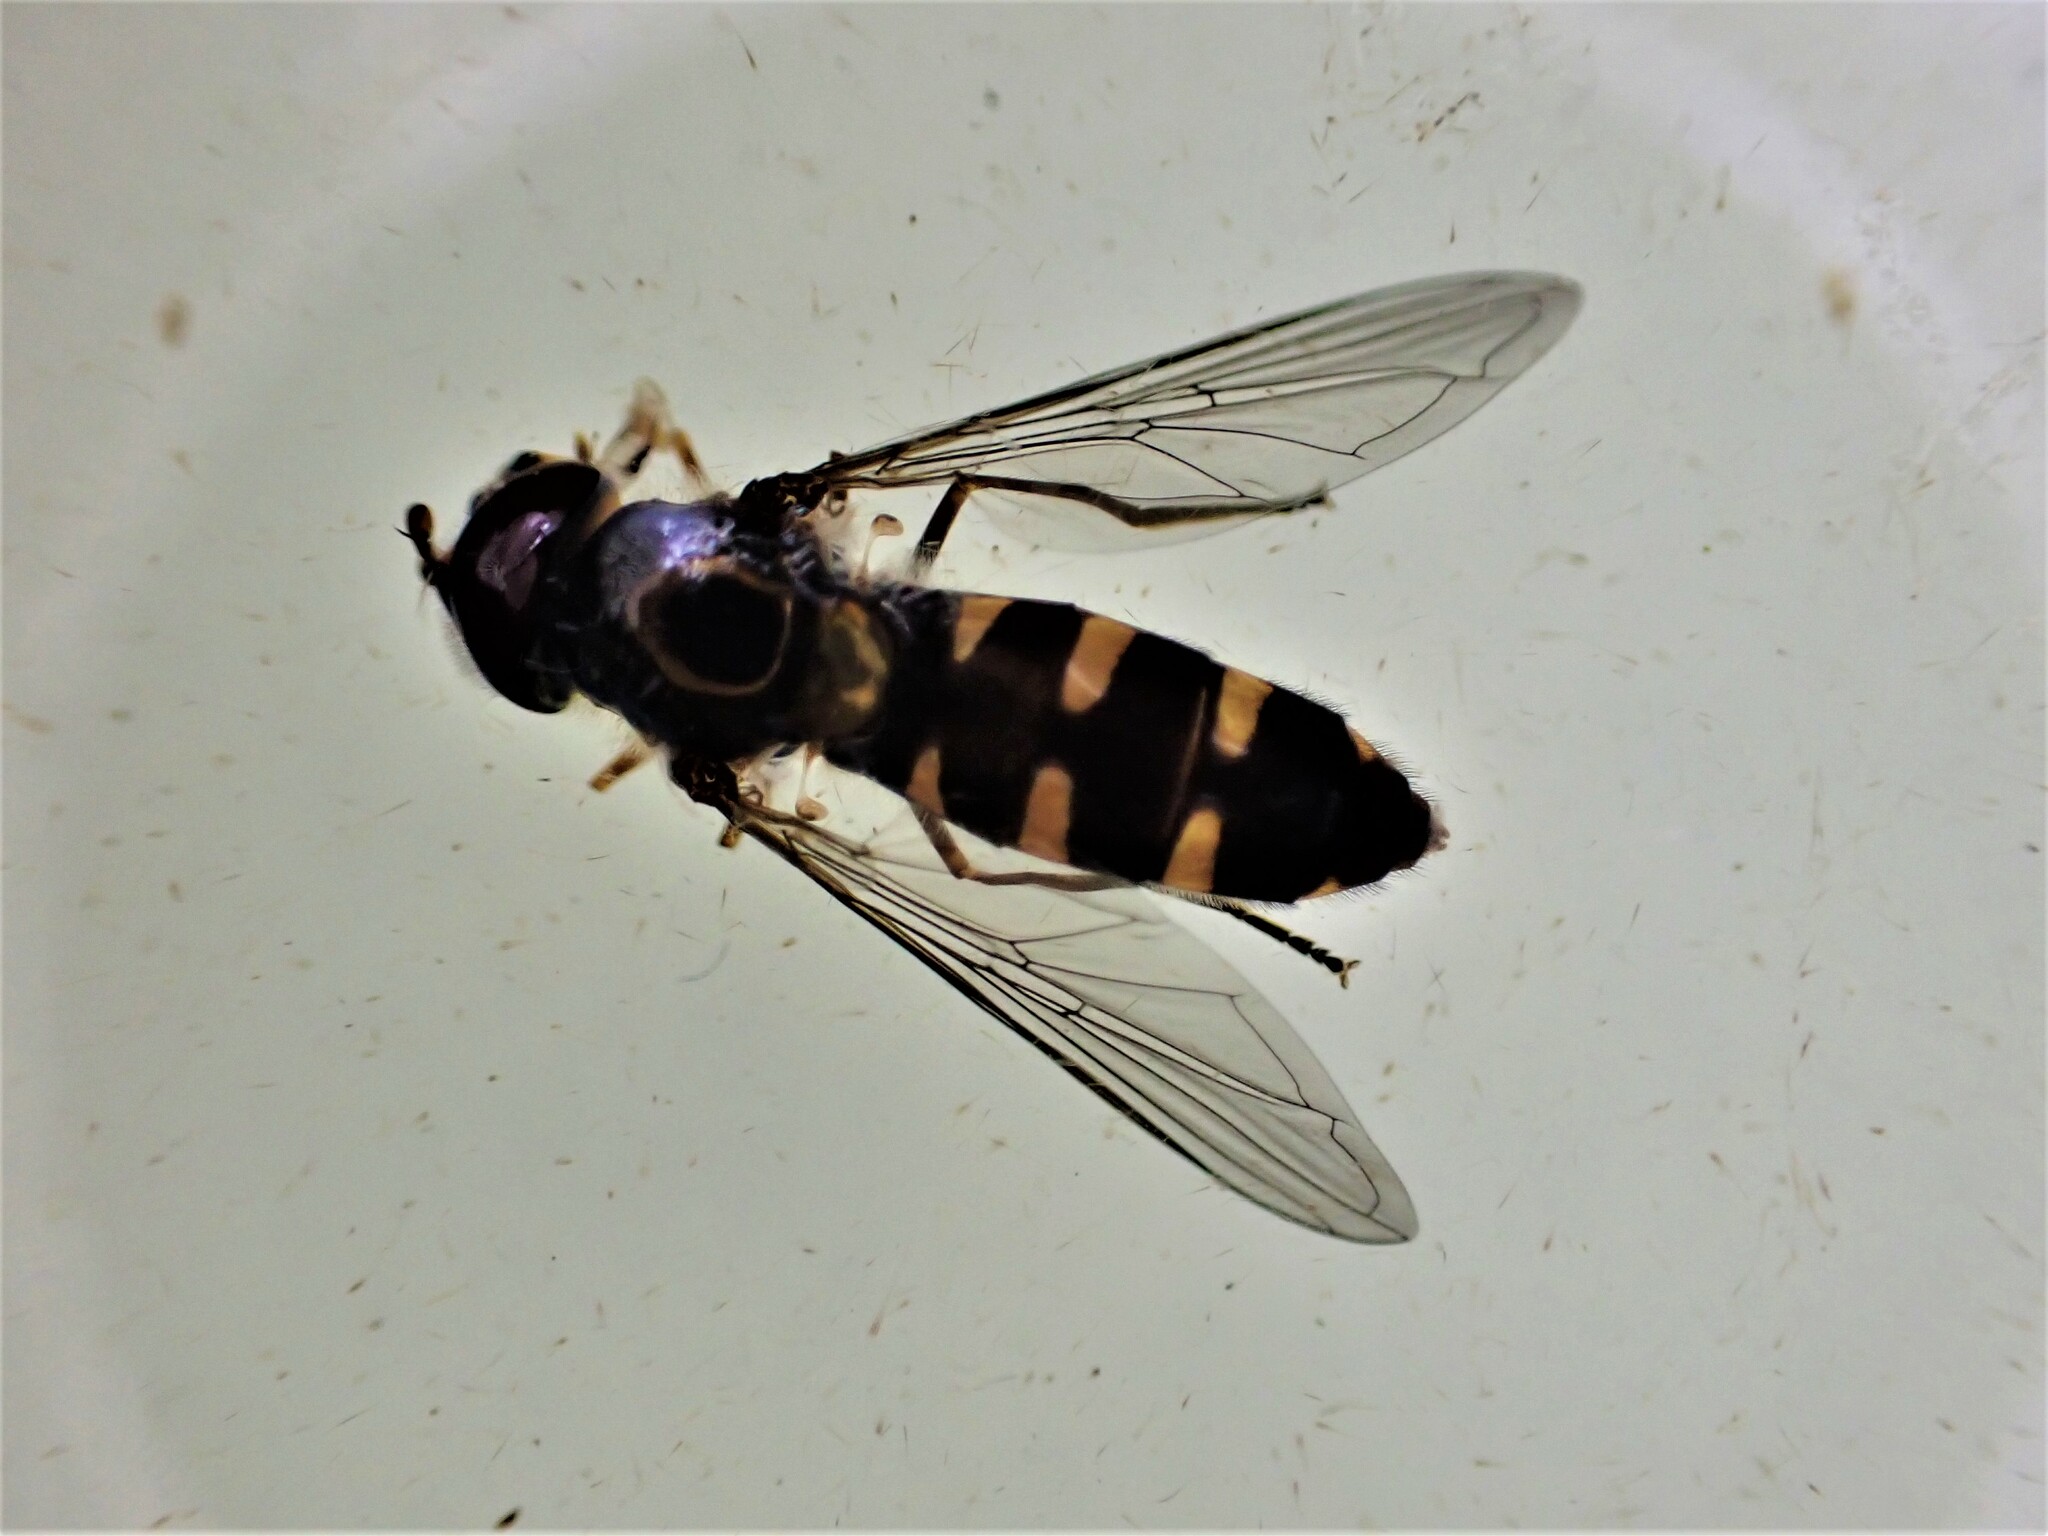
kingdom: Animalia
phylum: Arthropoda
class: Insecta
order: Diptera
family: Syrphidae
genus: Melangyna
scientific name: Melangyna novaezelandiae
